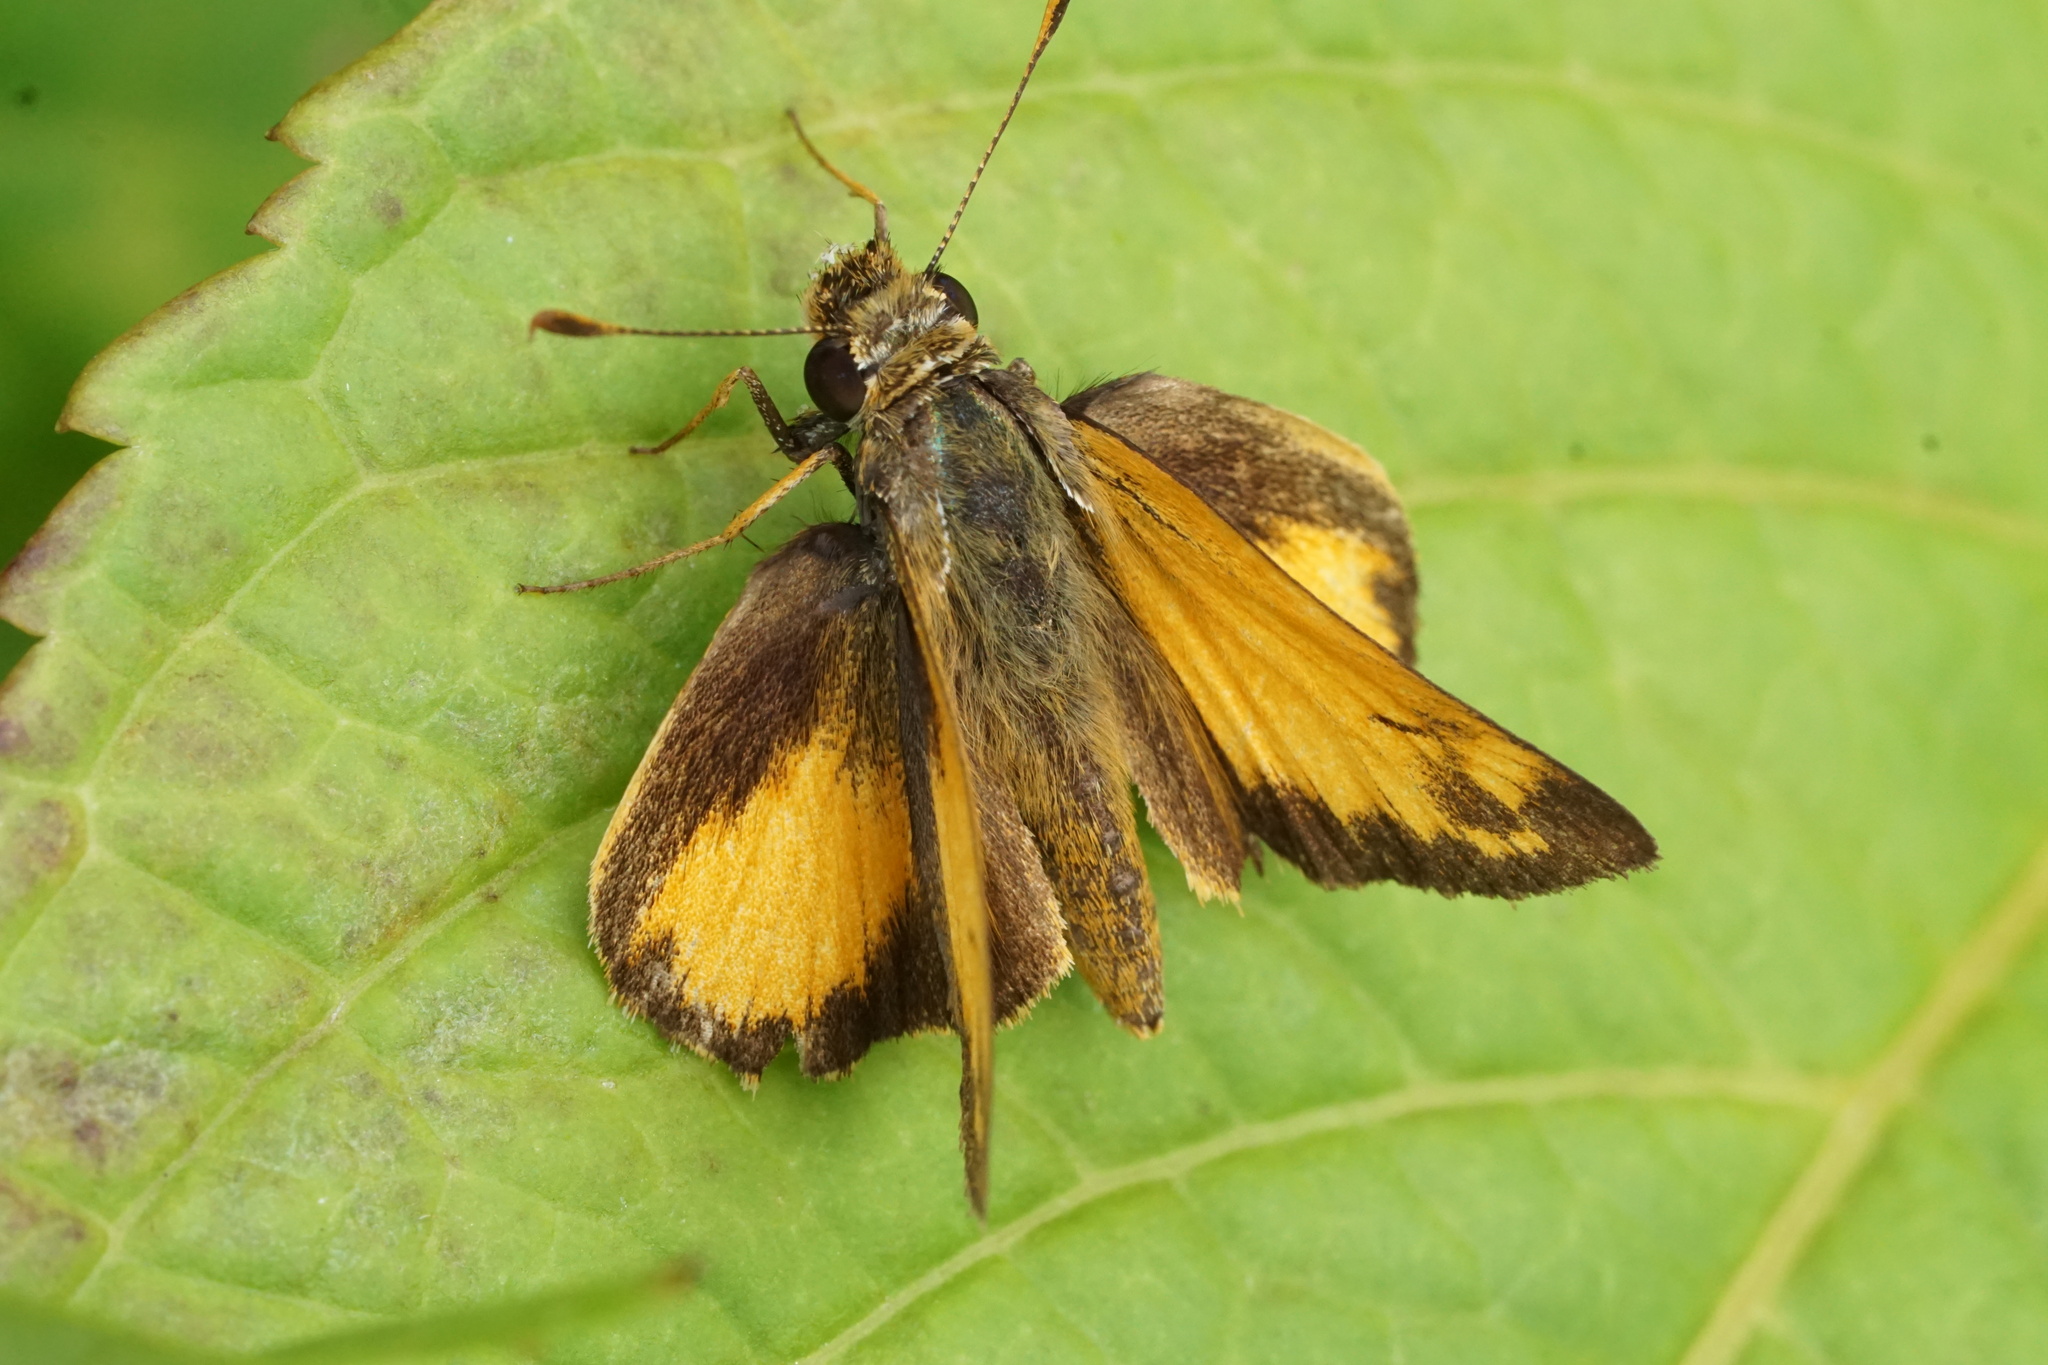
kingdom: Animalia
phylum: Arthropoda
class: Insecta
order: Lepidoptera
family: Hesperiidae
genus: Lon
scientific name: Lon zabulon
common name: Zabulon skipper
